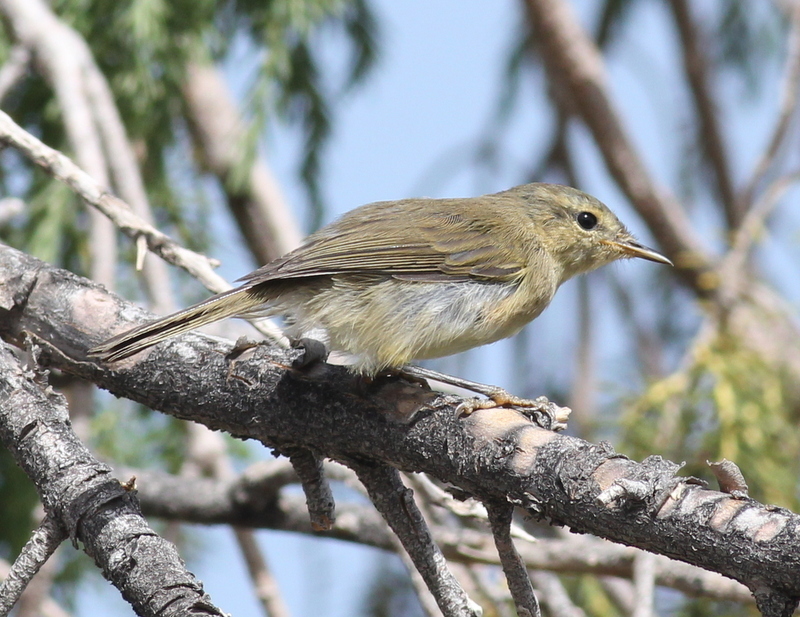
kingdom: Animalia
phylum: Chordata
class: Aves
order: Passeriformes
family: Phylloscopidae
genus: Phylloscopus
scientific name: Phylloscopus canariensis
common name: Canary islands chiffchaff
